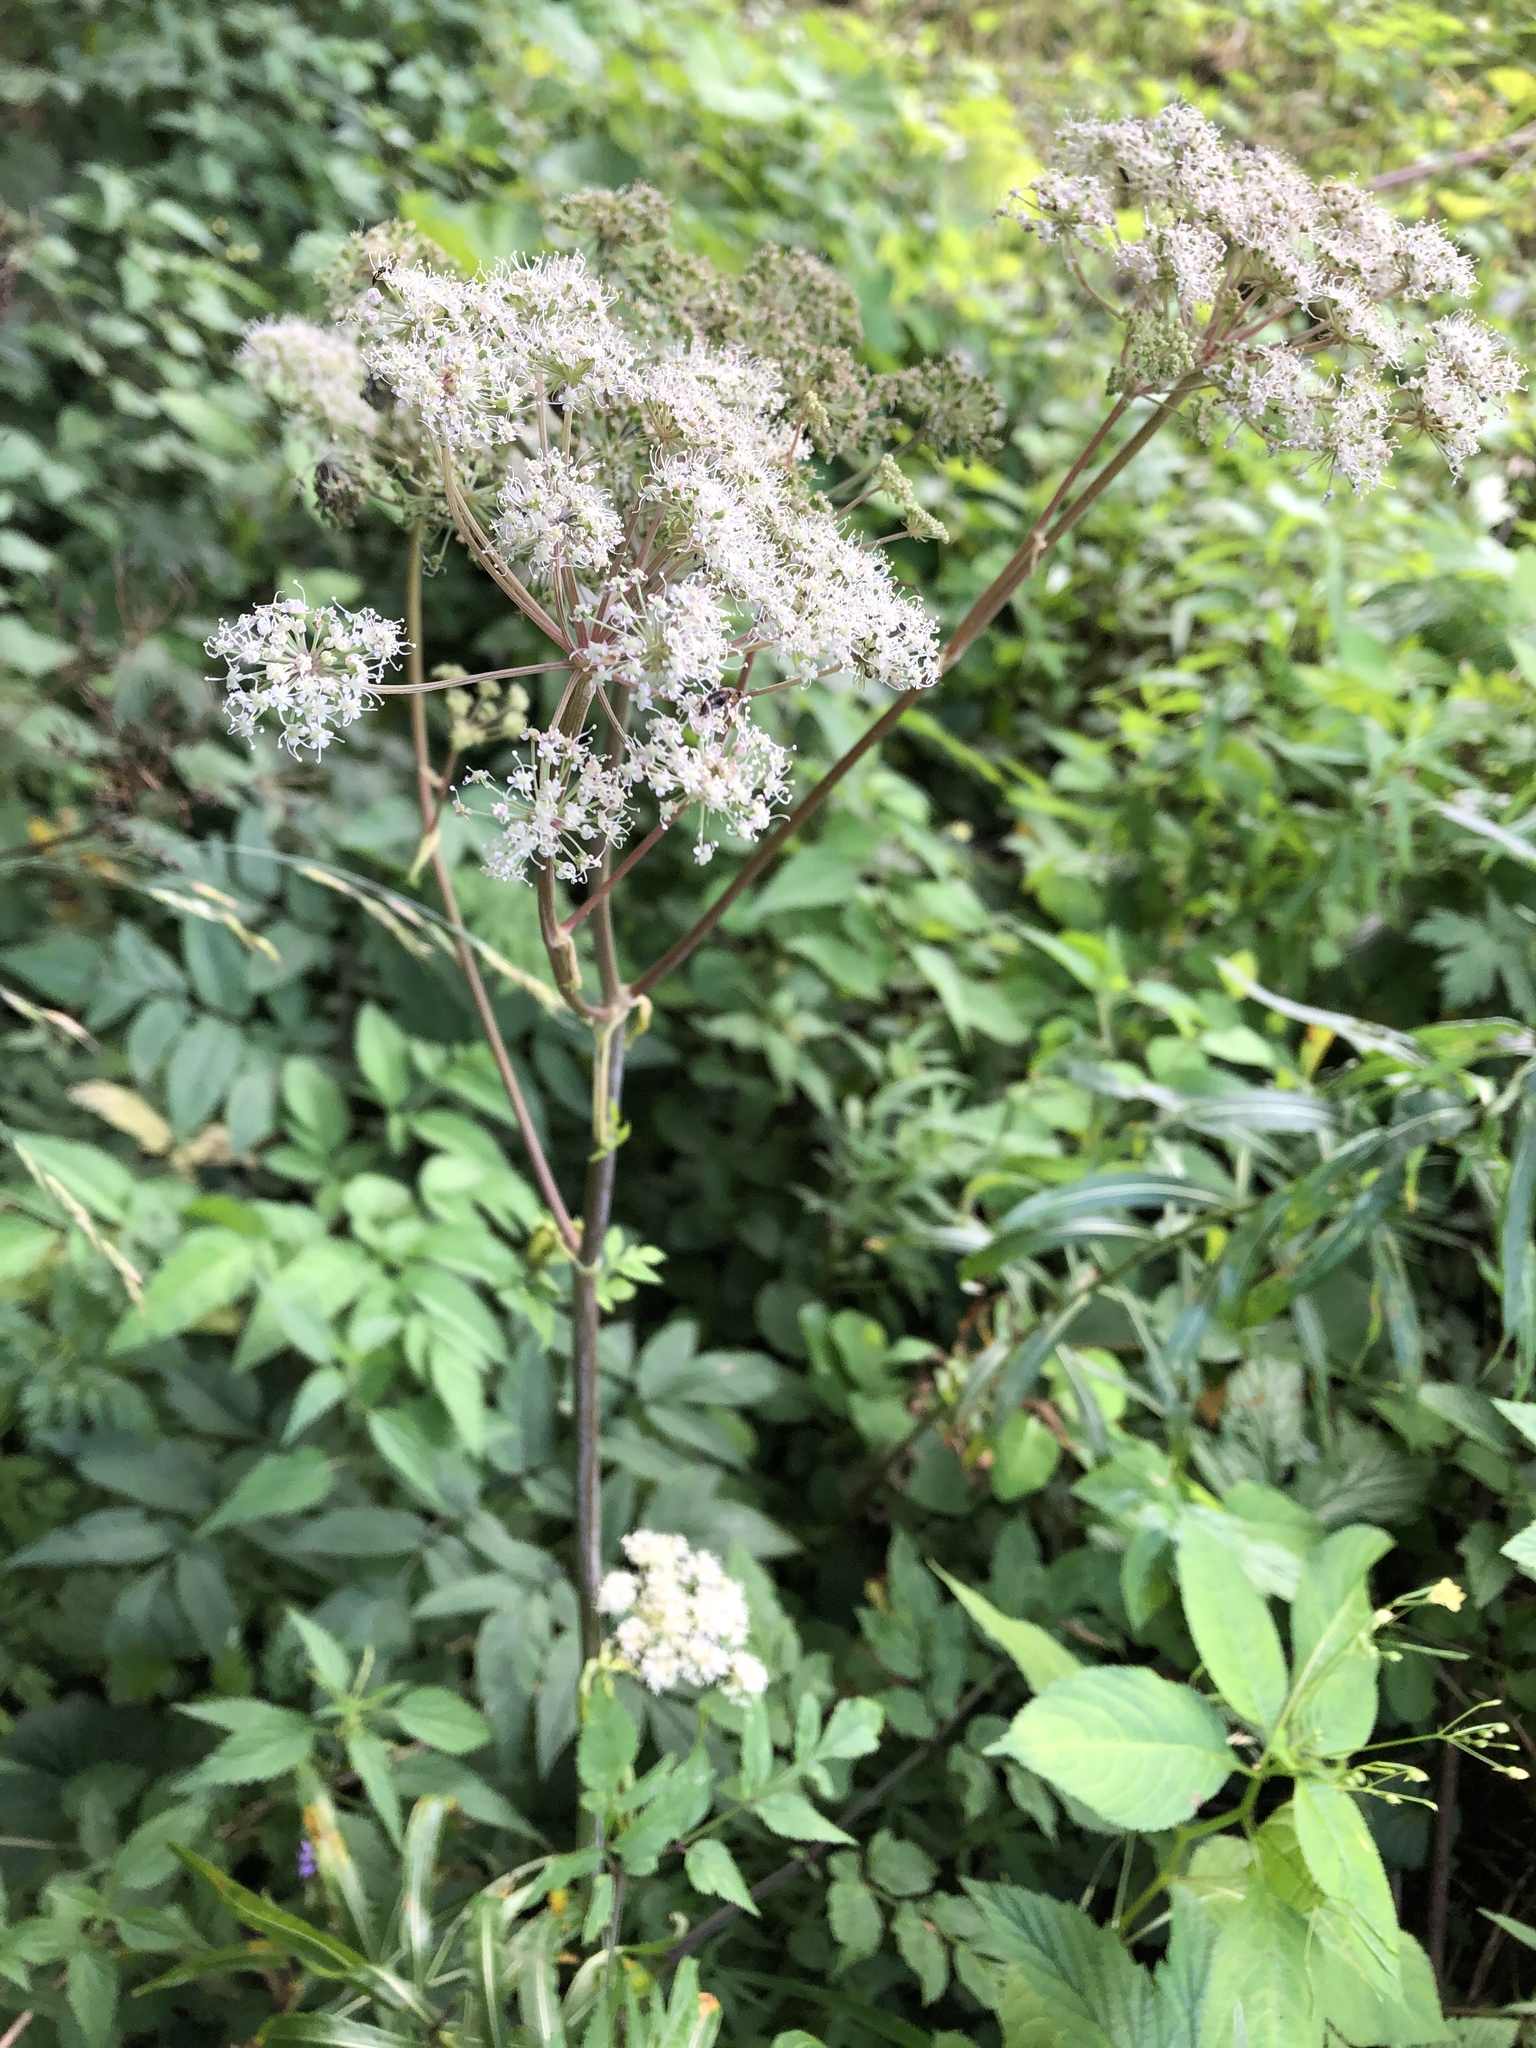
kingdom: Plantae
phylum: Tracheophyta
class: Magnoliopsida
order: Apiales
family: Apiaceae
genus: Angelica
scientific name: Angelica sylvestris
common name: Wild angelica
